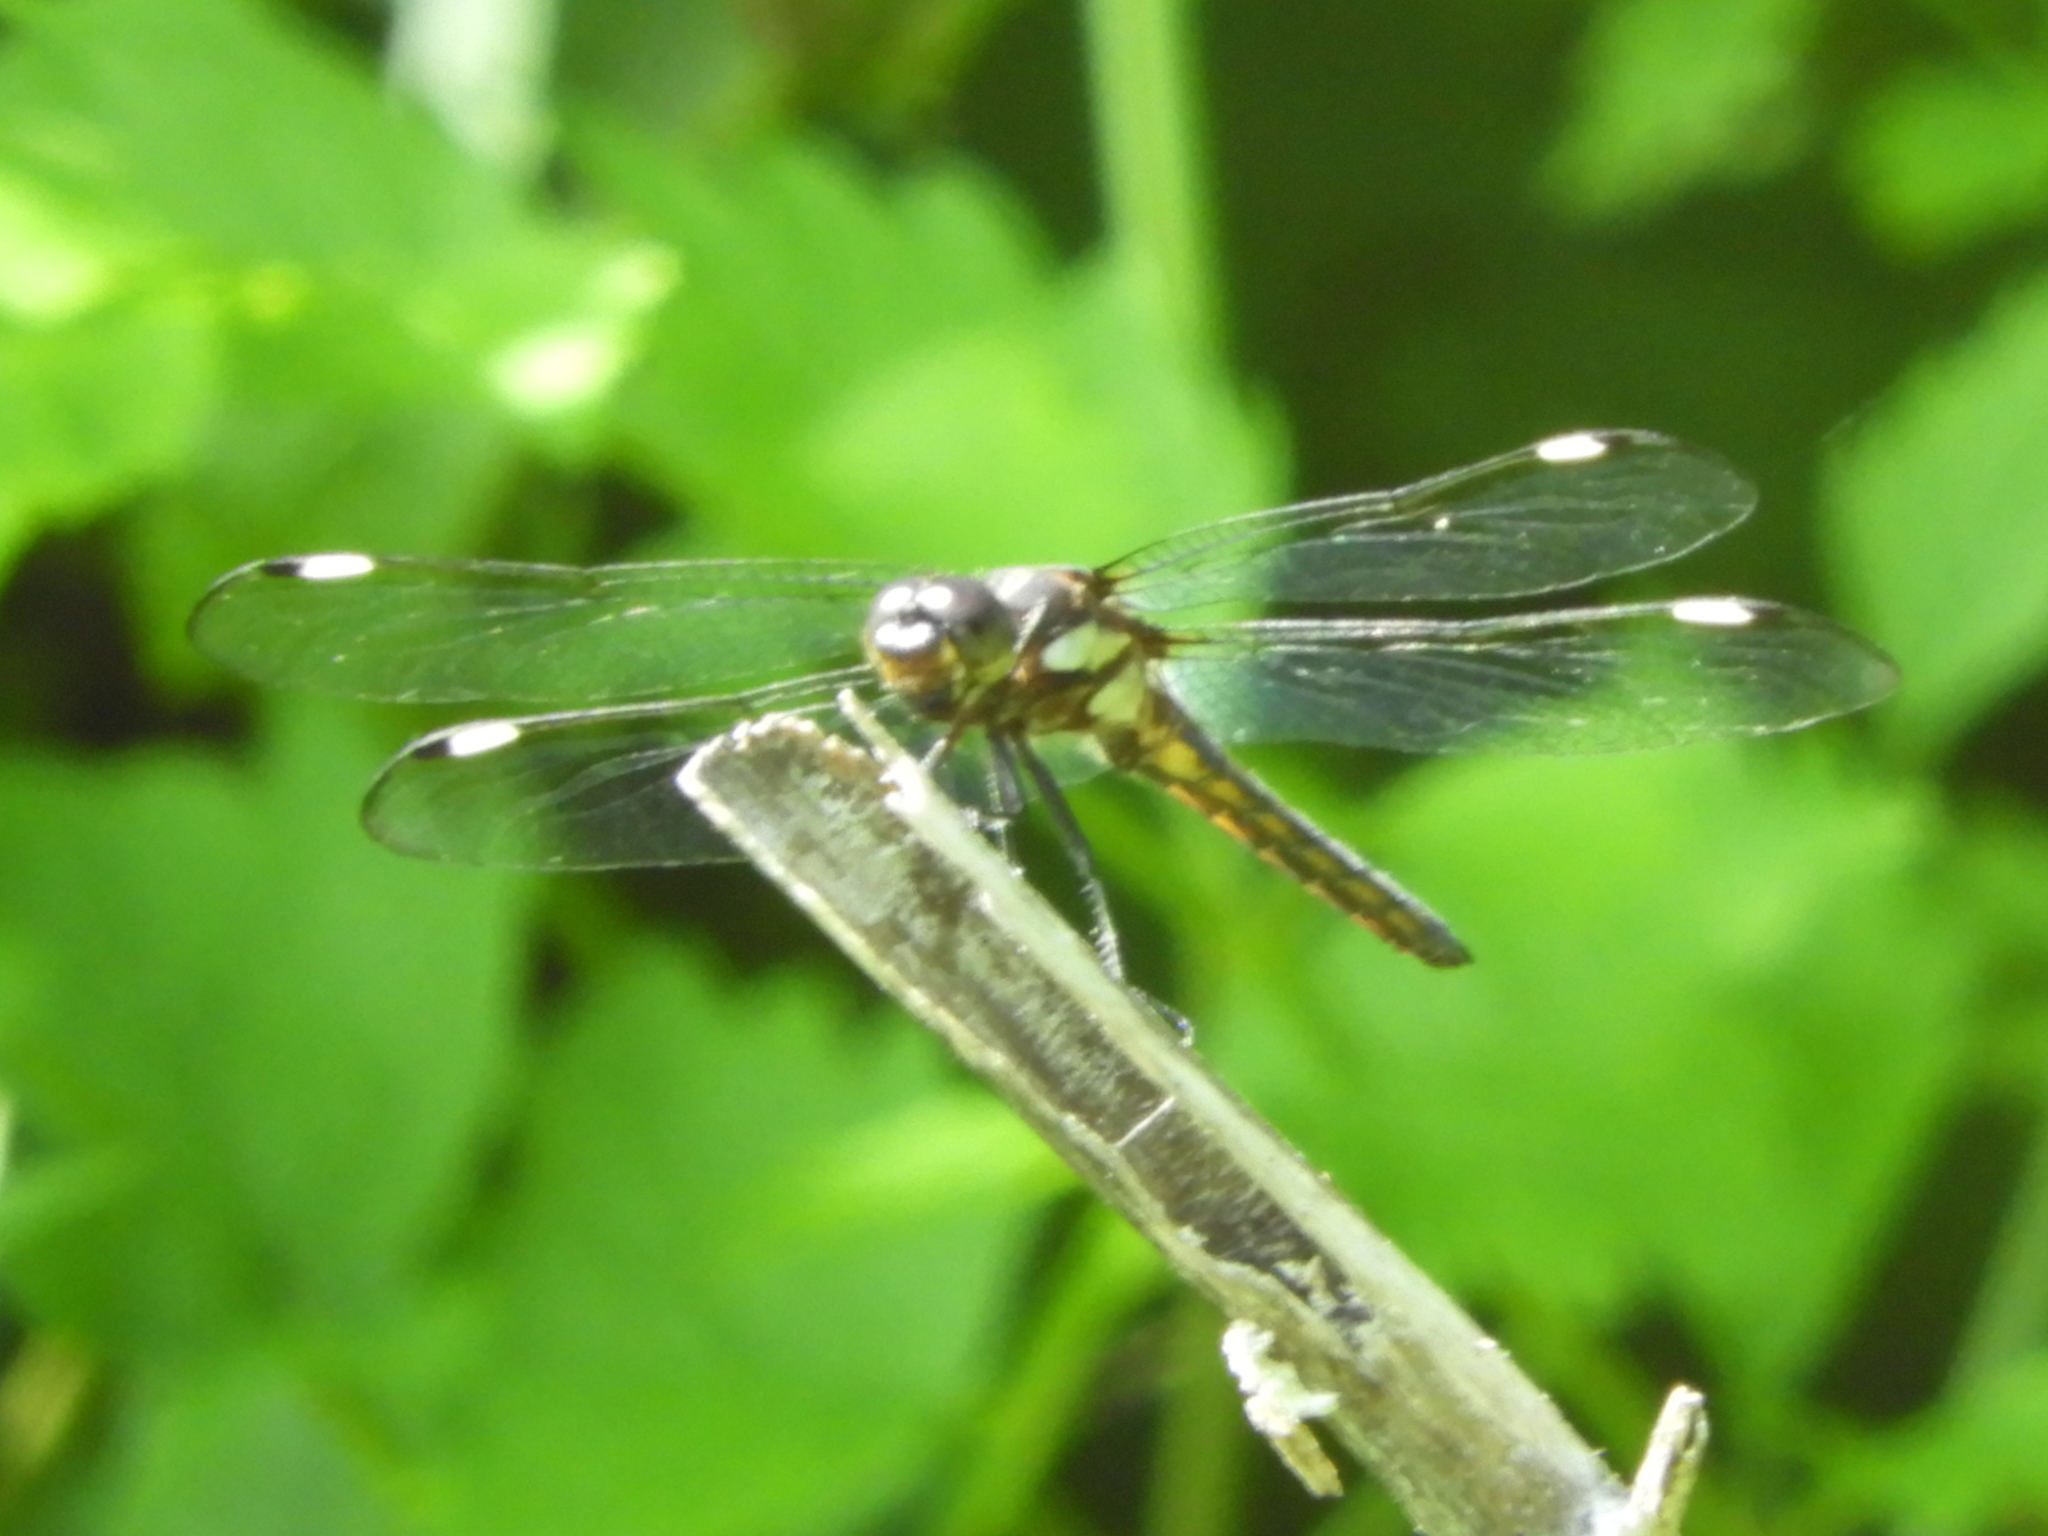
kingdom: Animalia
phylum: Arthropoda
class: Insecta
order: Odonata
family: Libellulidae
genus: Libellula
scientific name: Libellula cyanea
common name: Spangled skimmer
